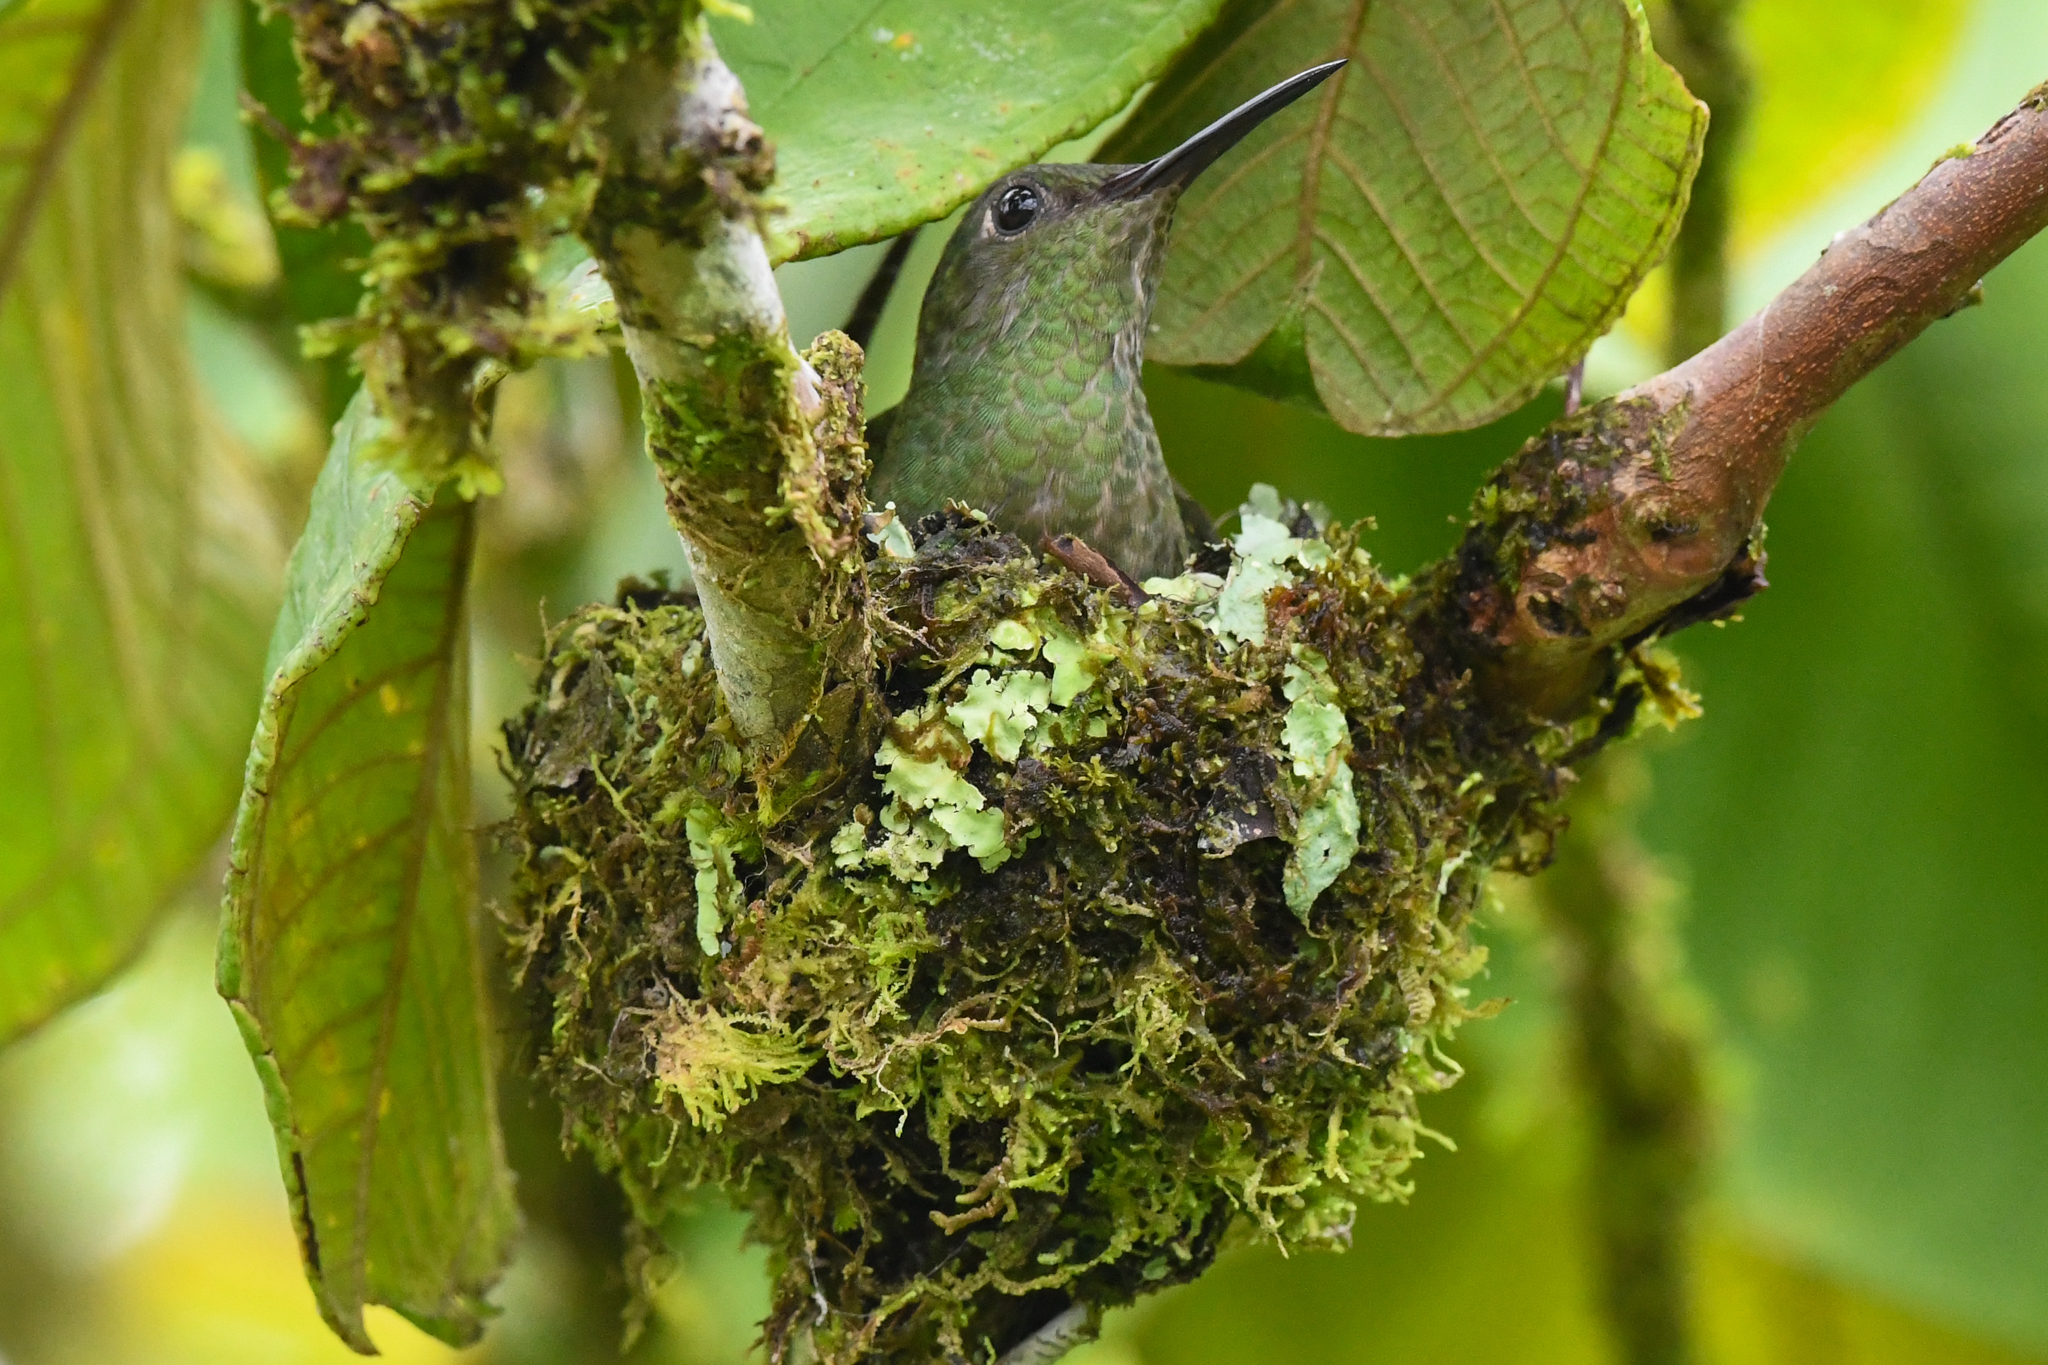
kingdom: Animalia
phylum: Chordata
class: Aves
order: Apodiformes
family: Trochilidae
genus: Phaeochroa
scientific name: Phaeochroa cuvierii
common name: Scaly-breasted hummingbird
